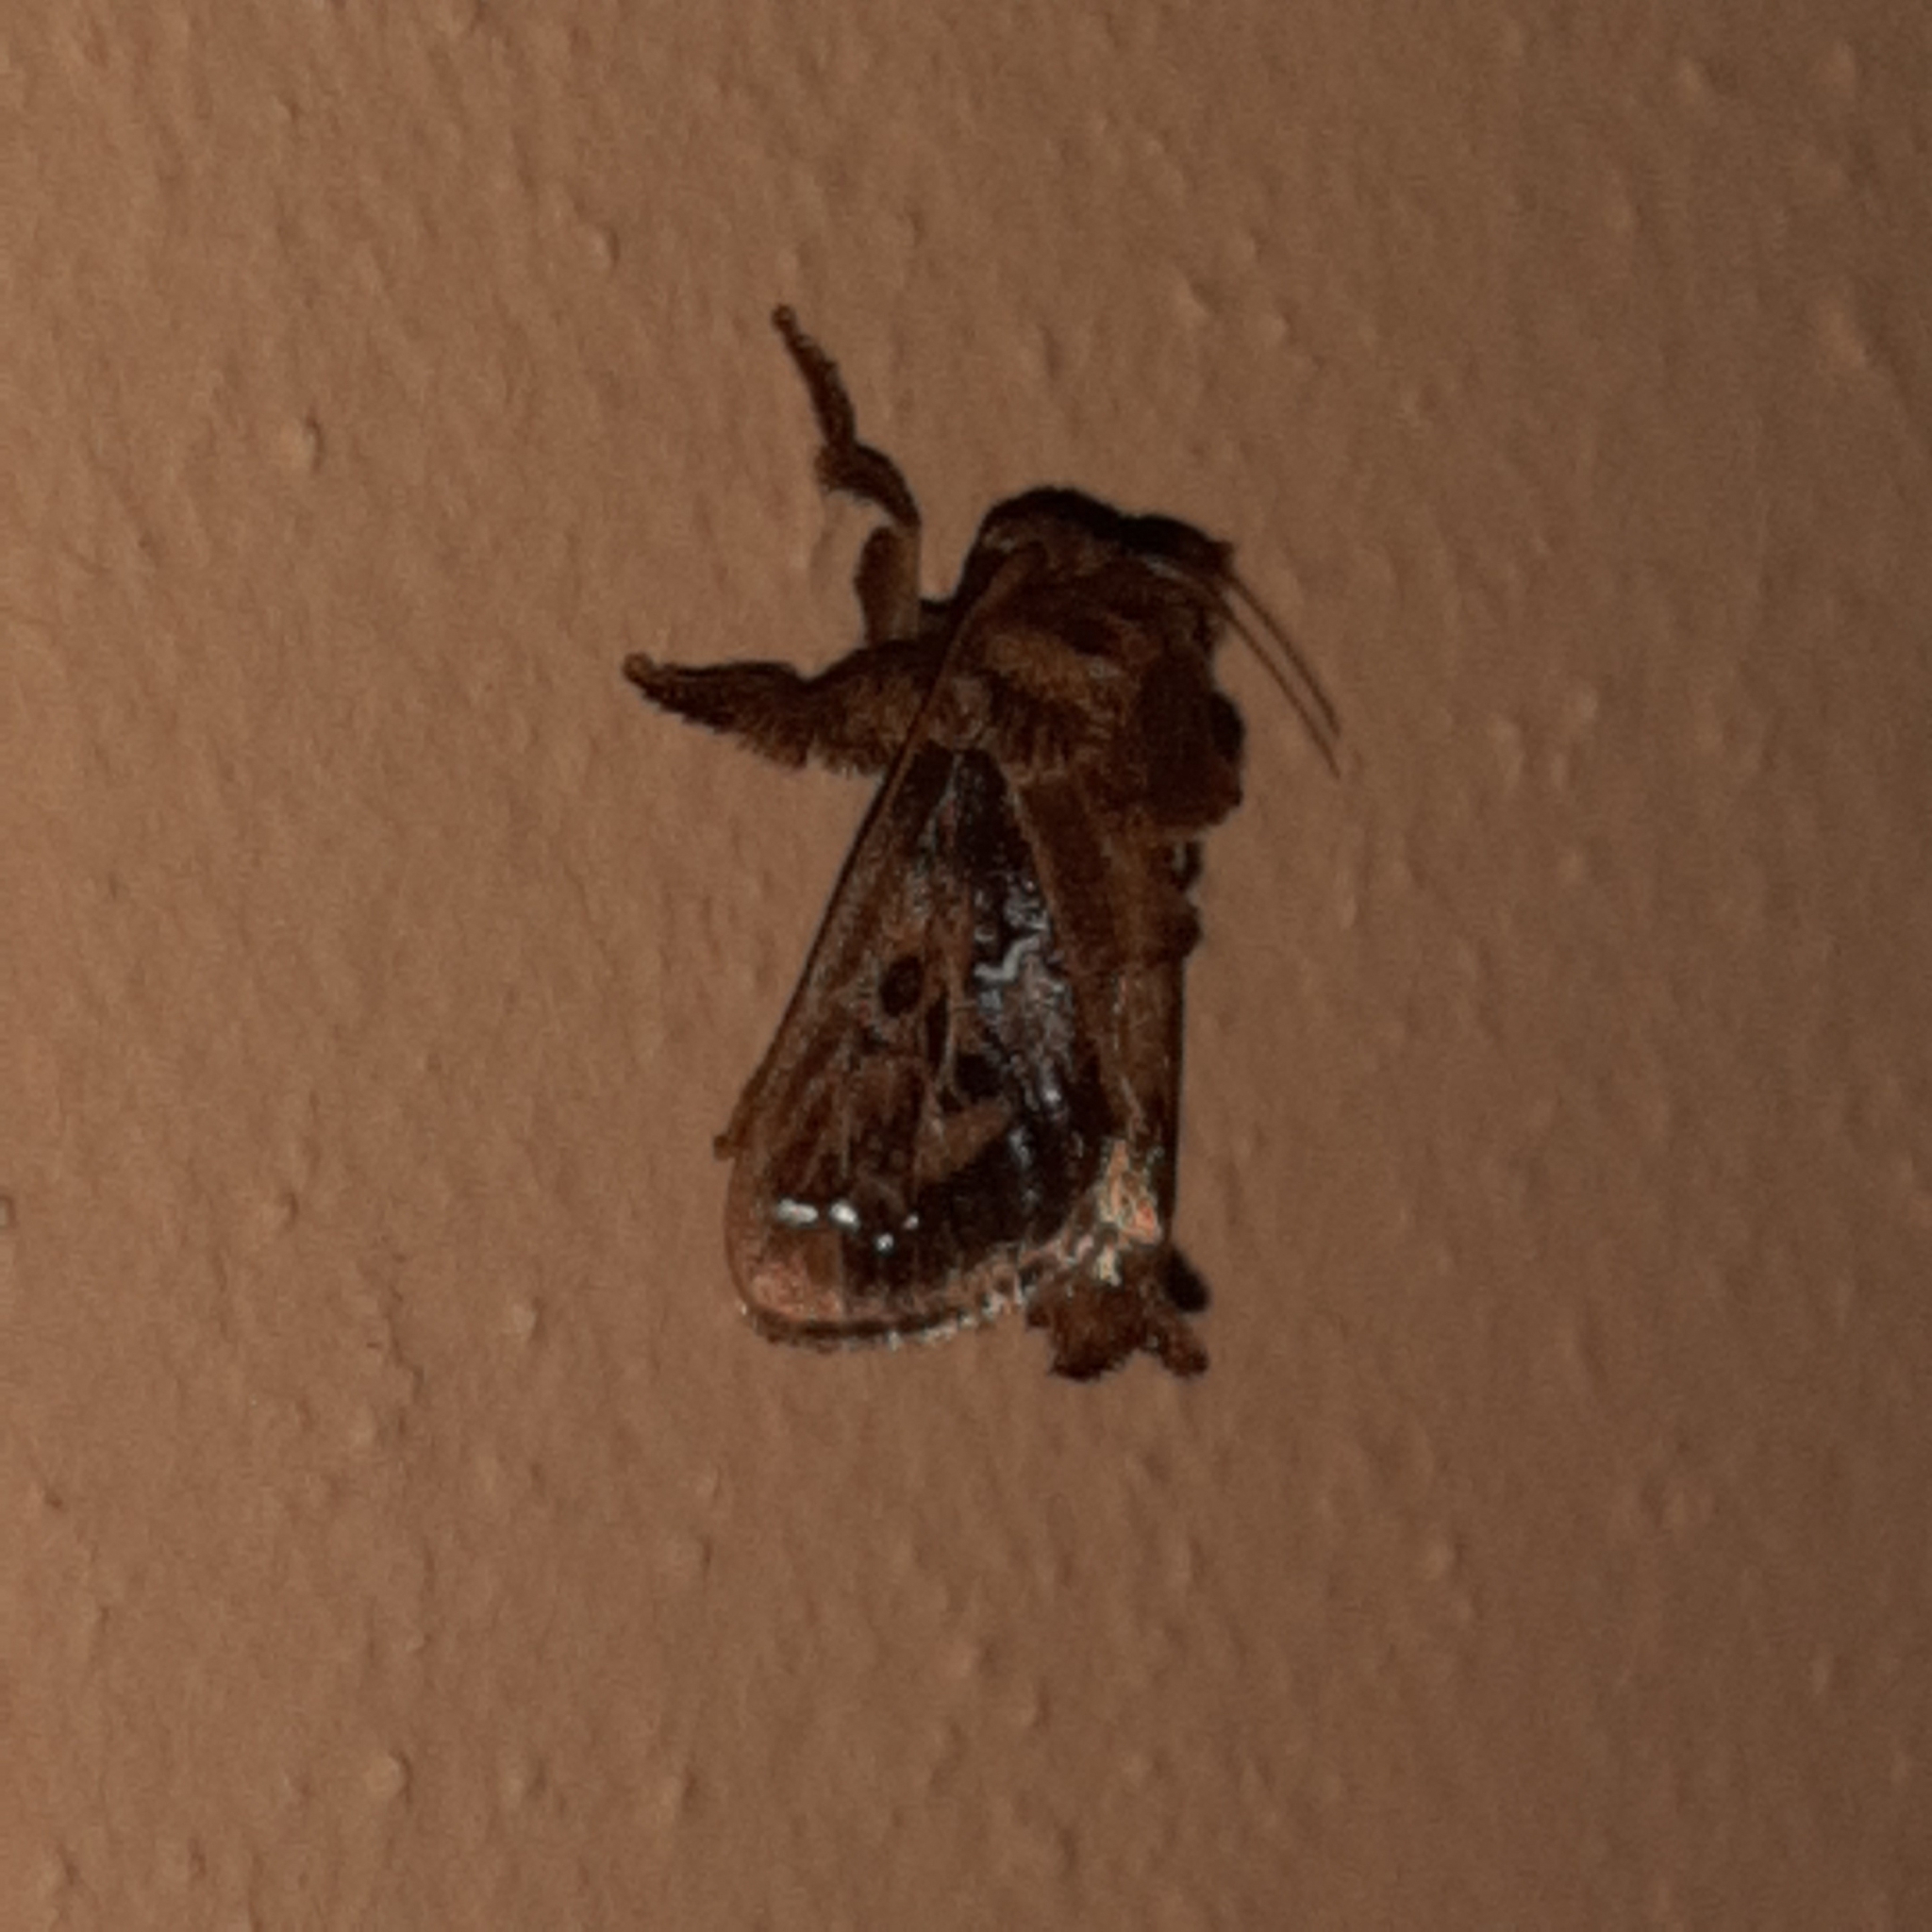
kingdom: Animalia
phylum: Arthropoda
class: Insecta
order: Lepidoptera
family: Limacodidae
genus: Euclea
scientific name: Euclea buscki
